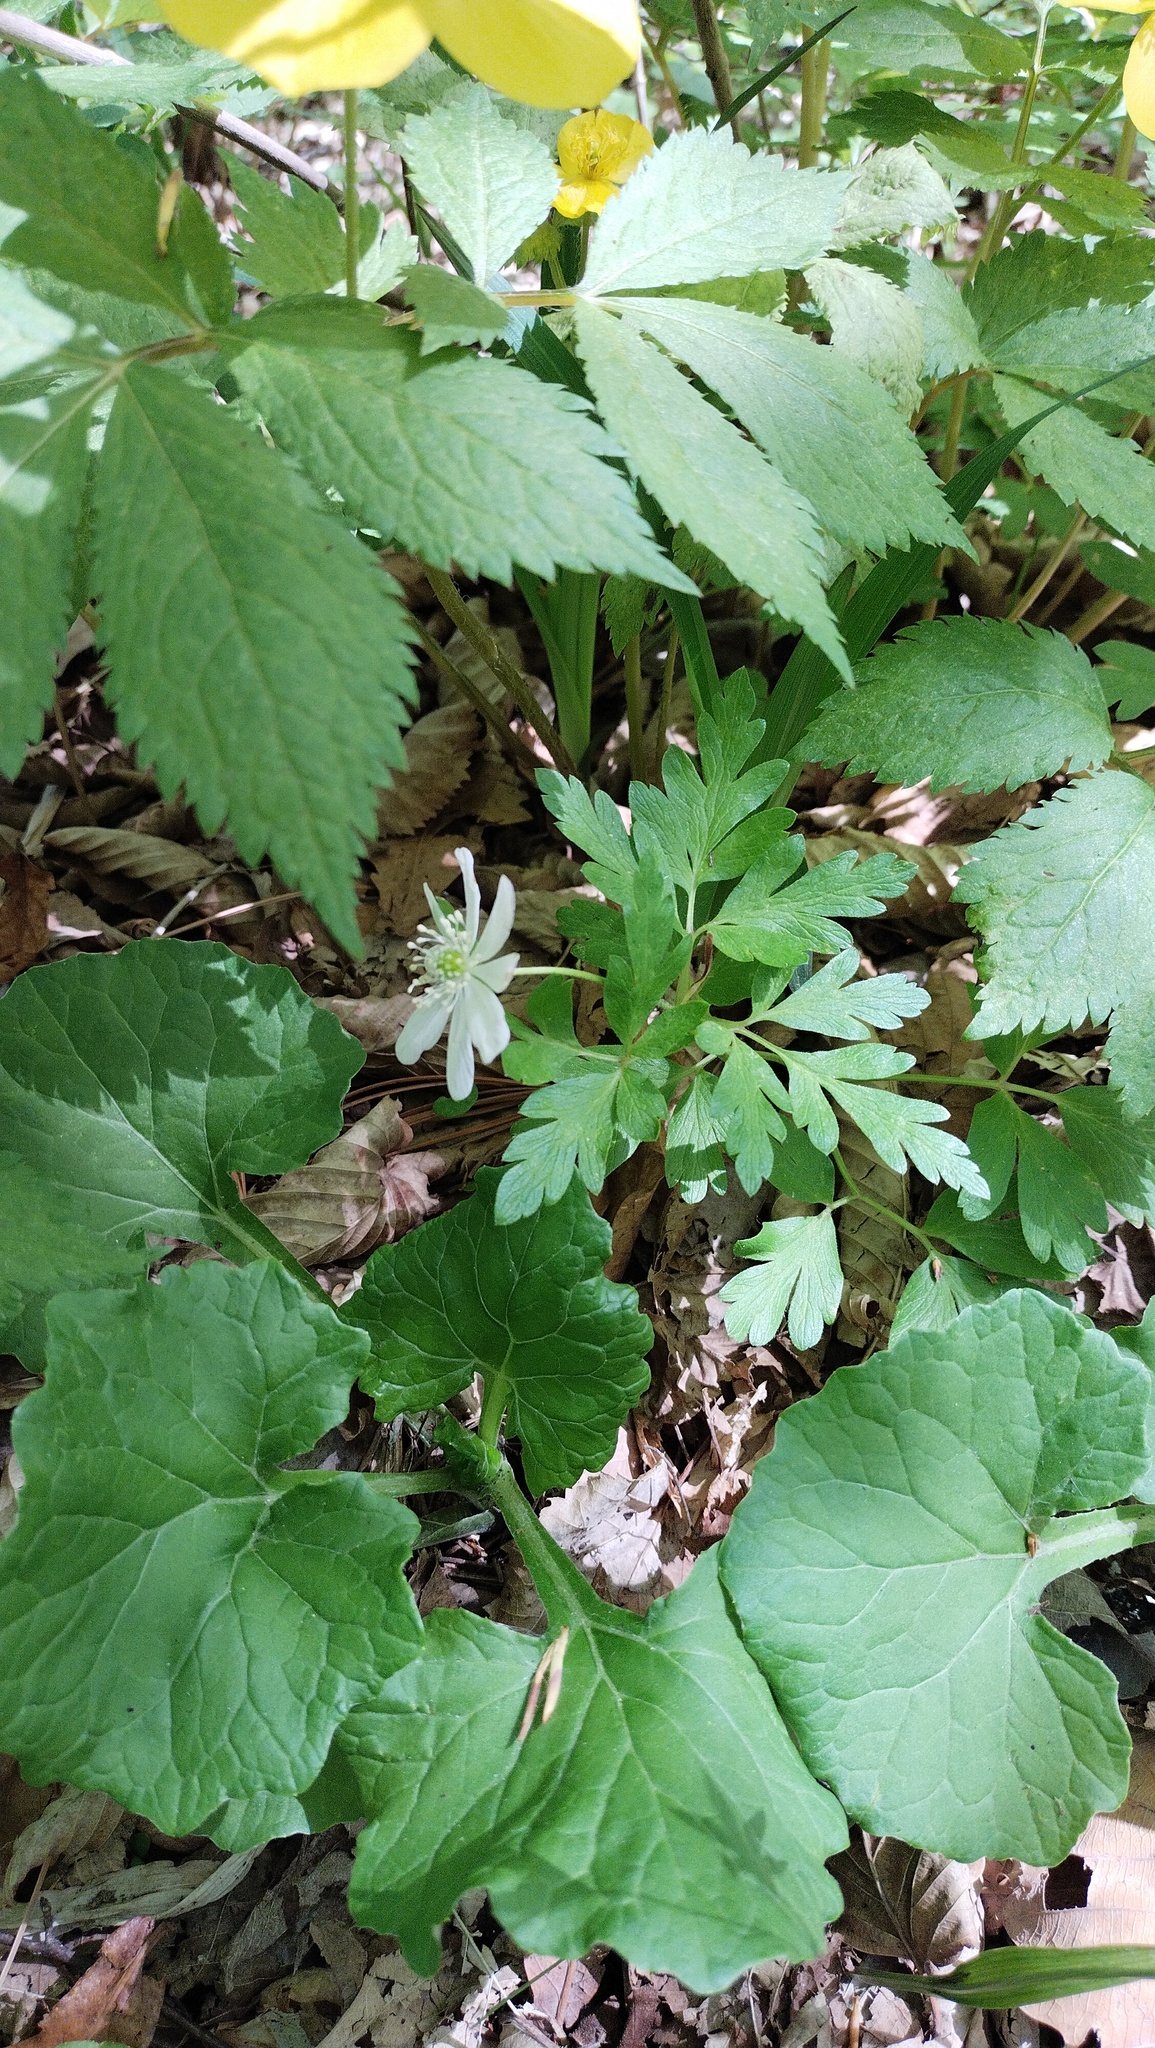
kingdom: Plantae
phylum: Tracheophyta
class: Magnoliopsida
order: Ranunculales
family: Ranunculaceae
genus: Anemone
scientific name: Anemone amurensis
